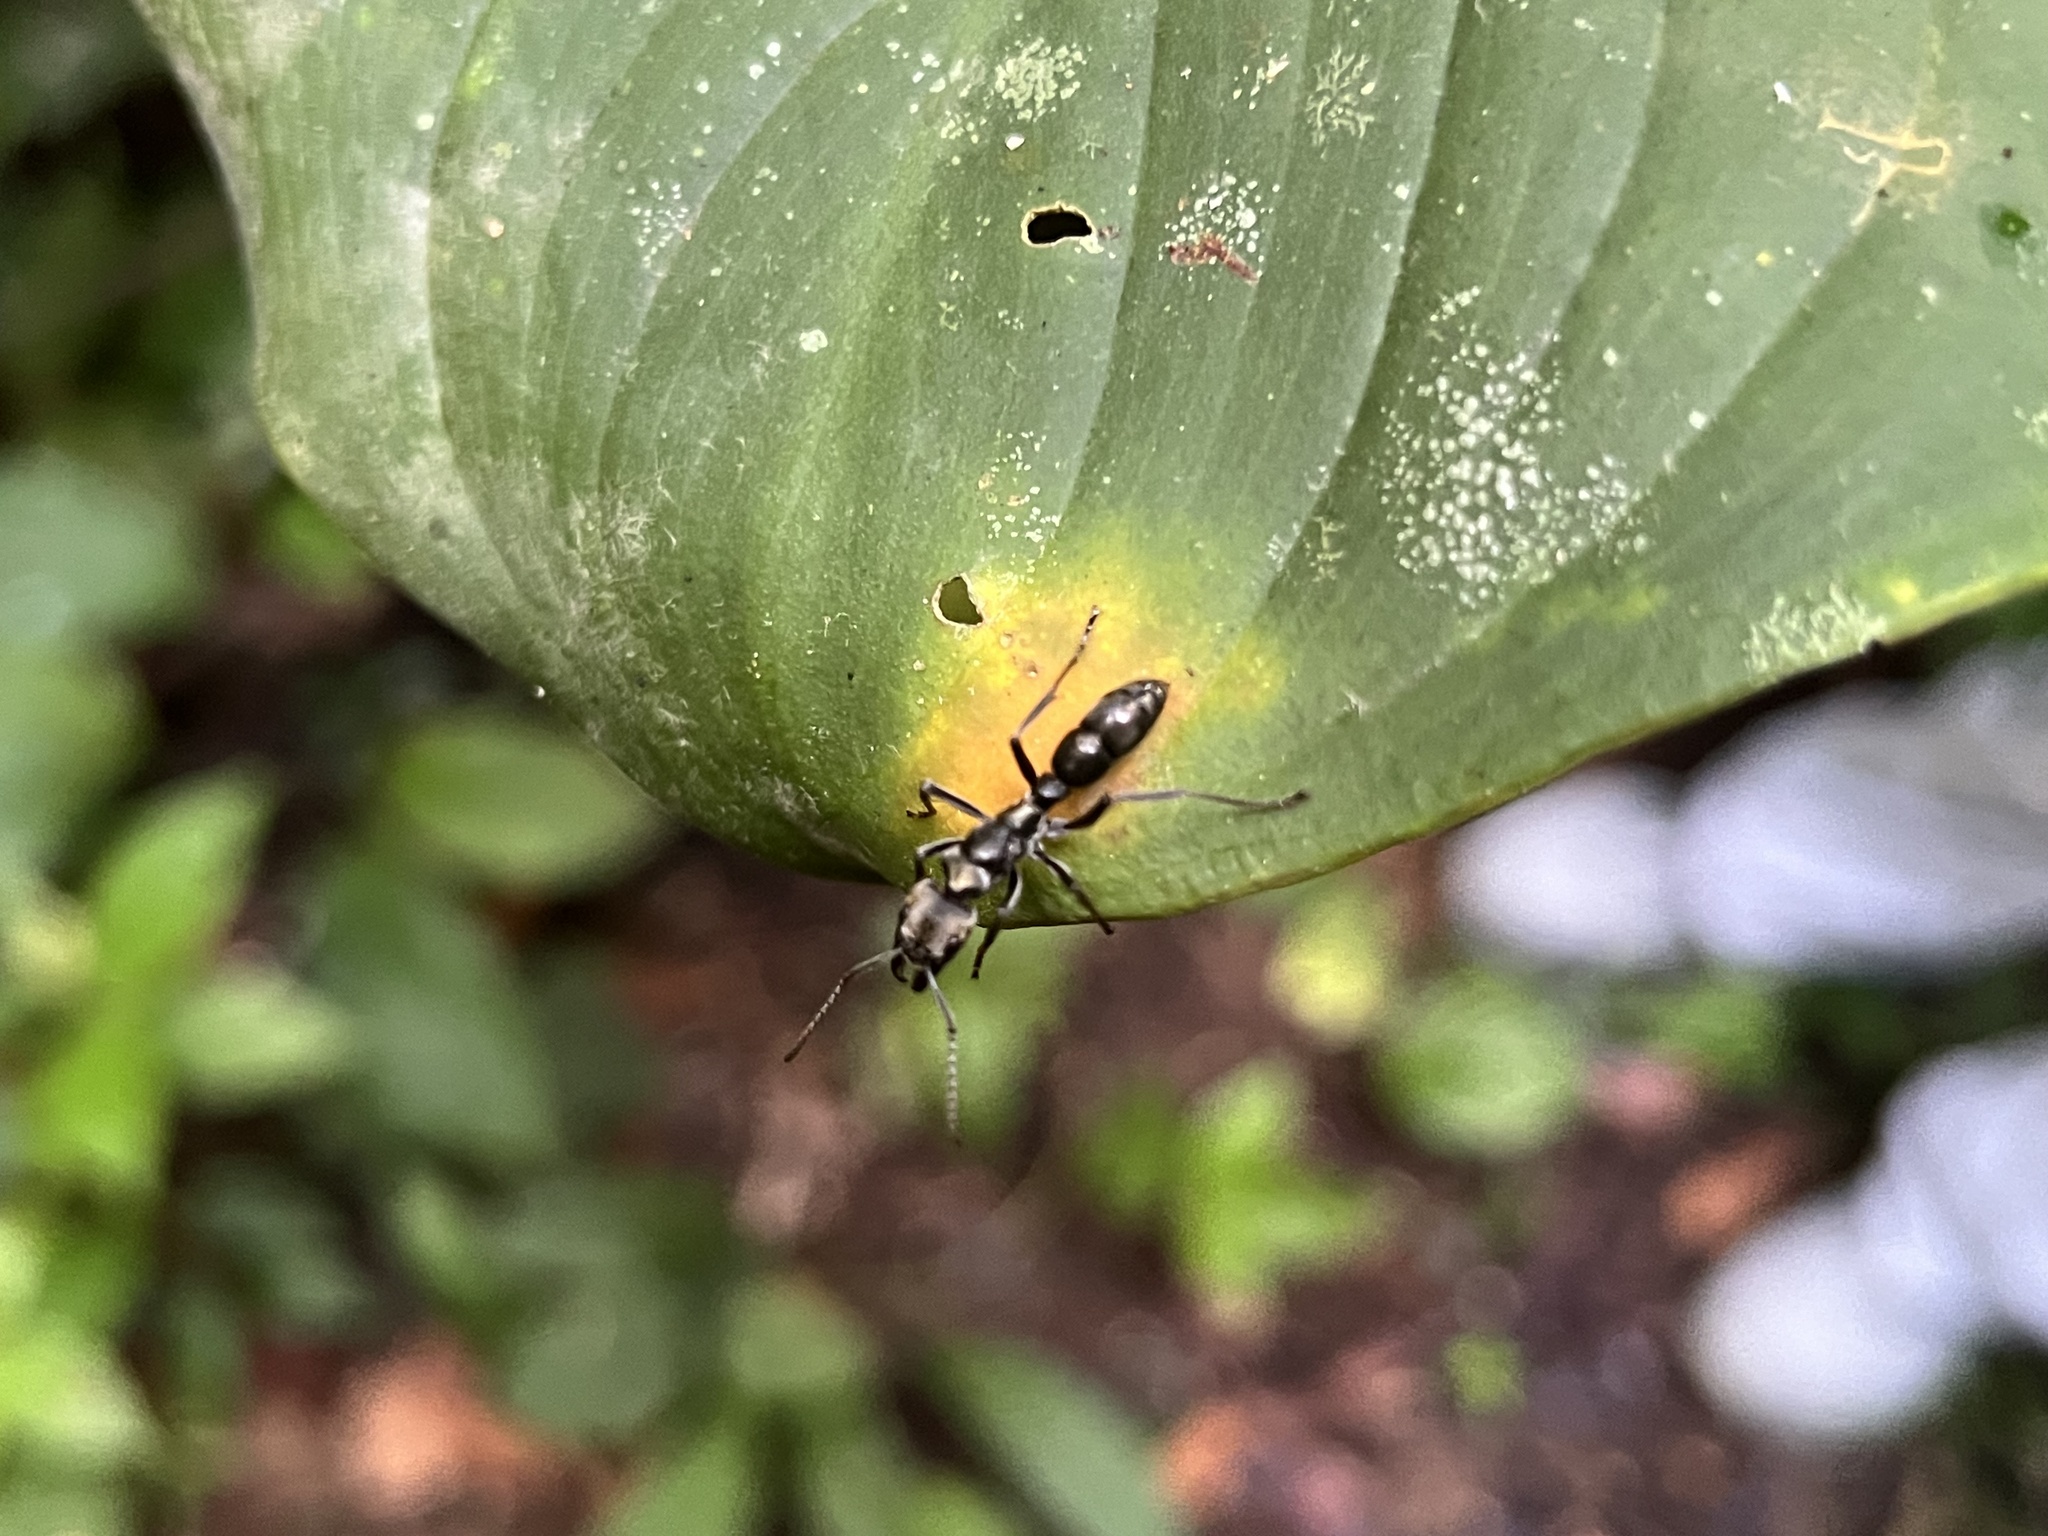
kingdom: Animalia
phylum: Arthropoda
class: Insecta
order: Hymenoptera
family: Formicidae
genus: Pachycondyla
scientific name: Pachycondyla villosa
